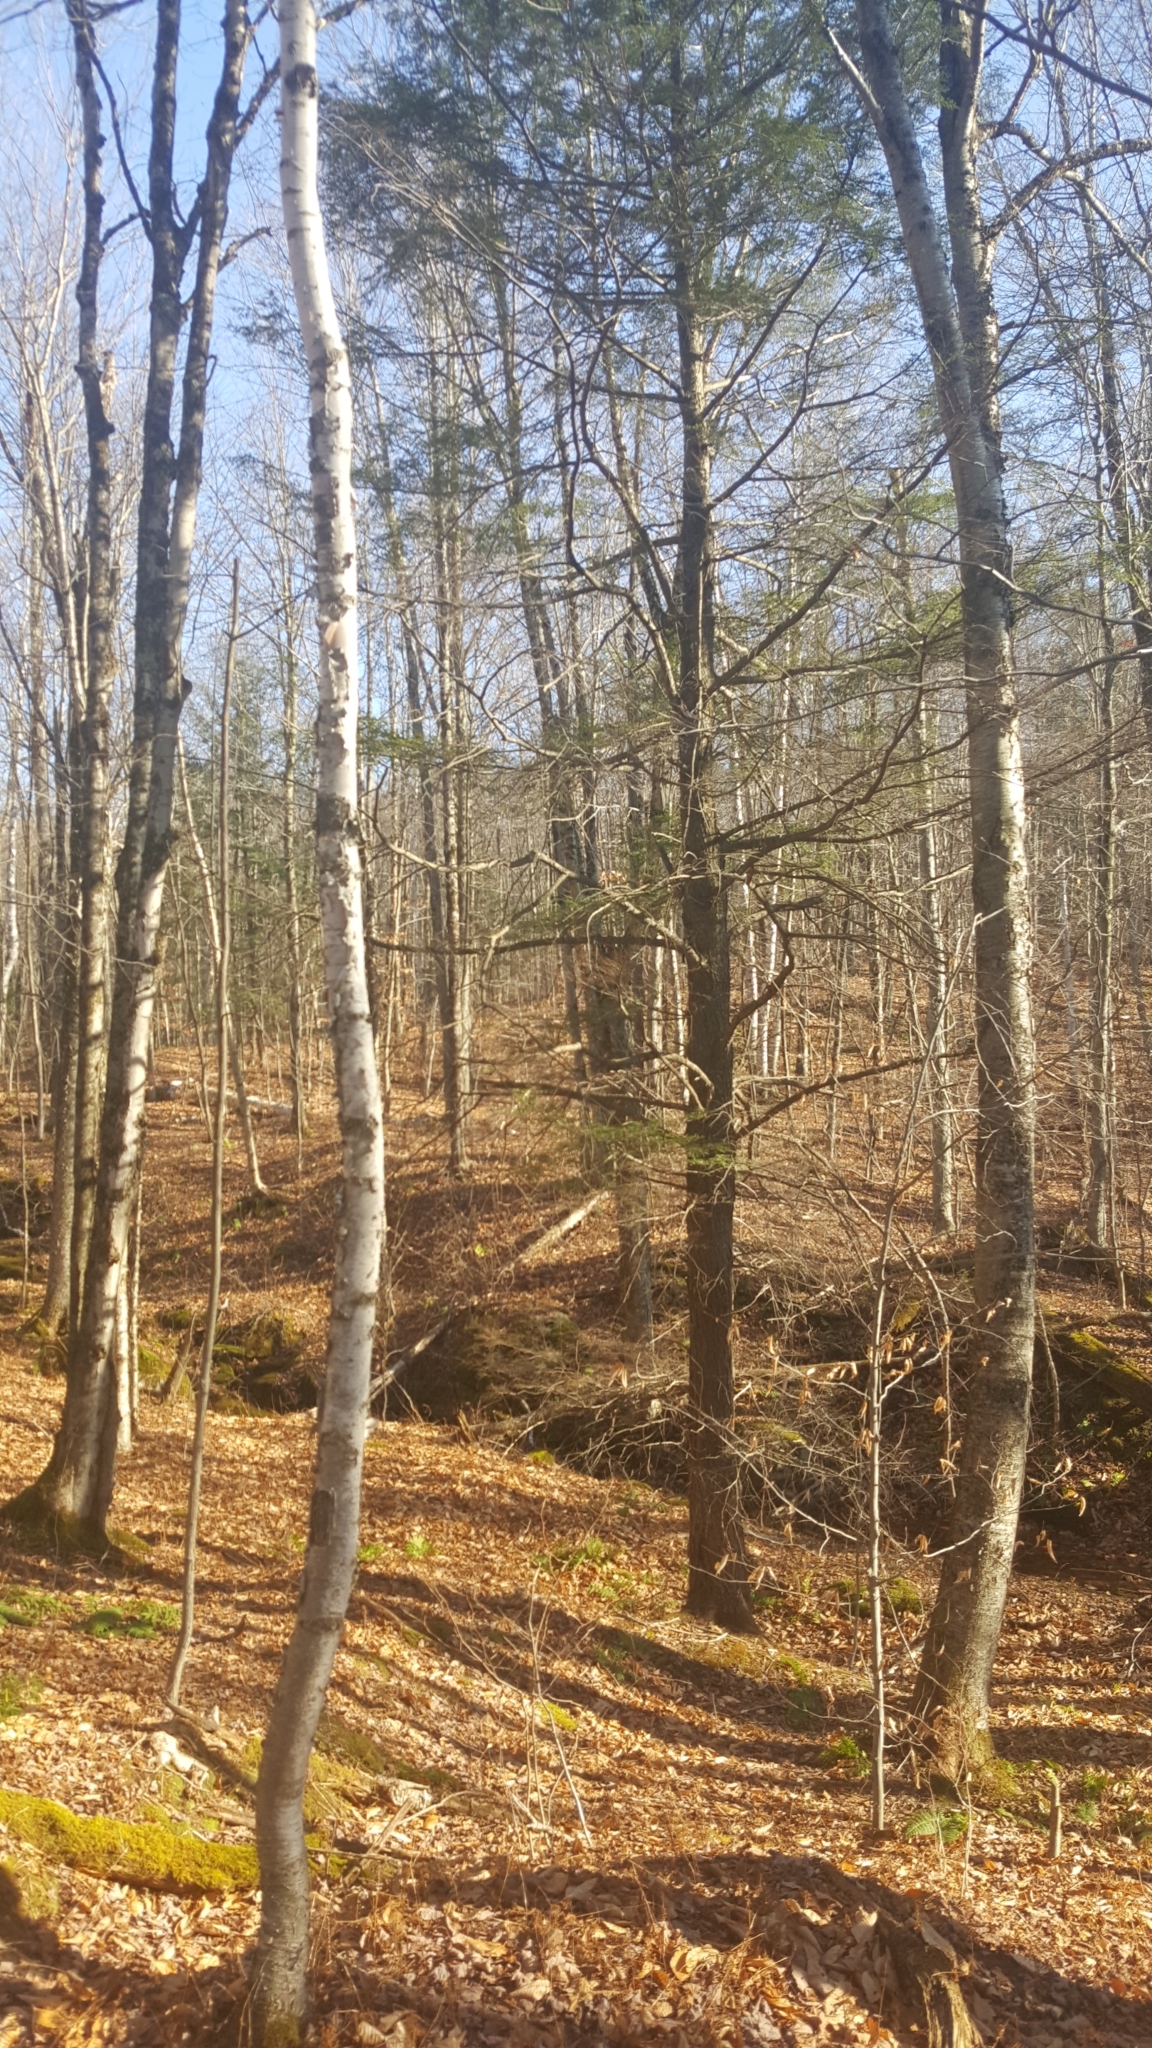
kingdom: Plantae
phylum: Tracheophyta
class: Pinopsida
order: Pinales
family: Pinaceae
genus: Tsuga
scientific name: Tsuga canadensis
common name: Eastern hemlock
